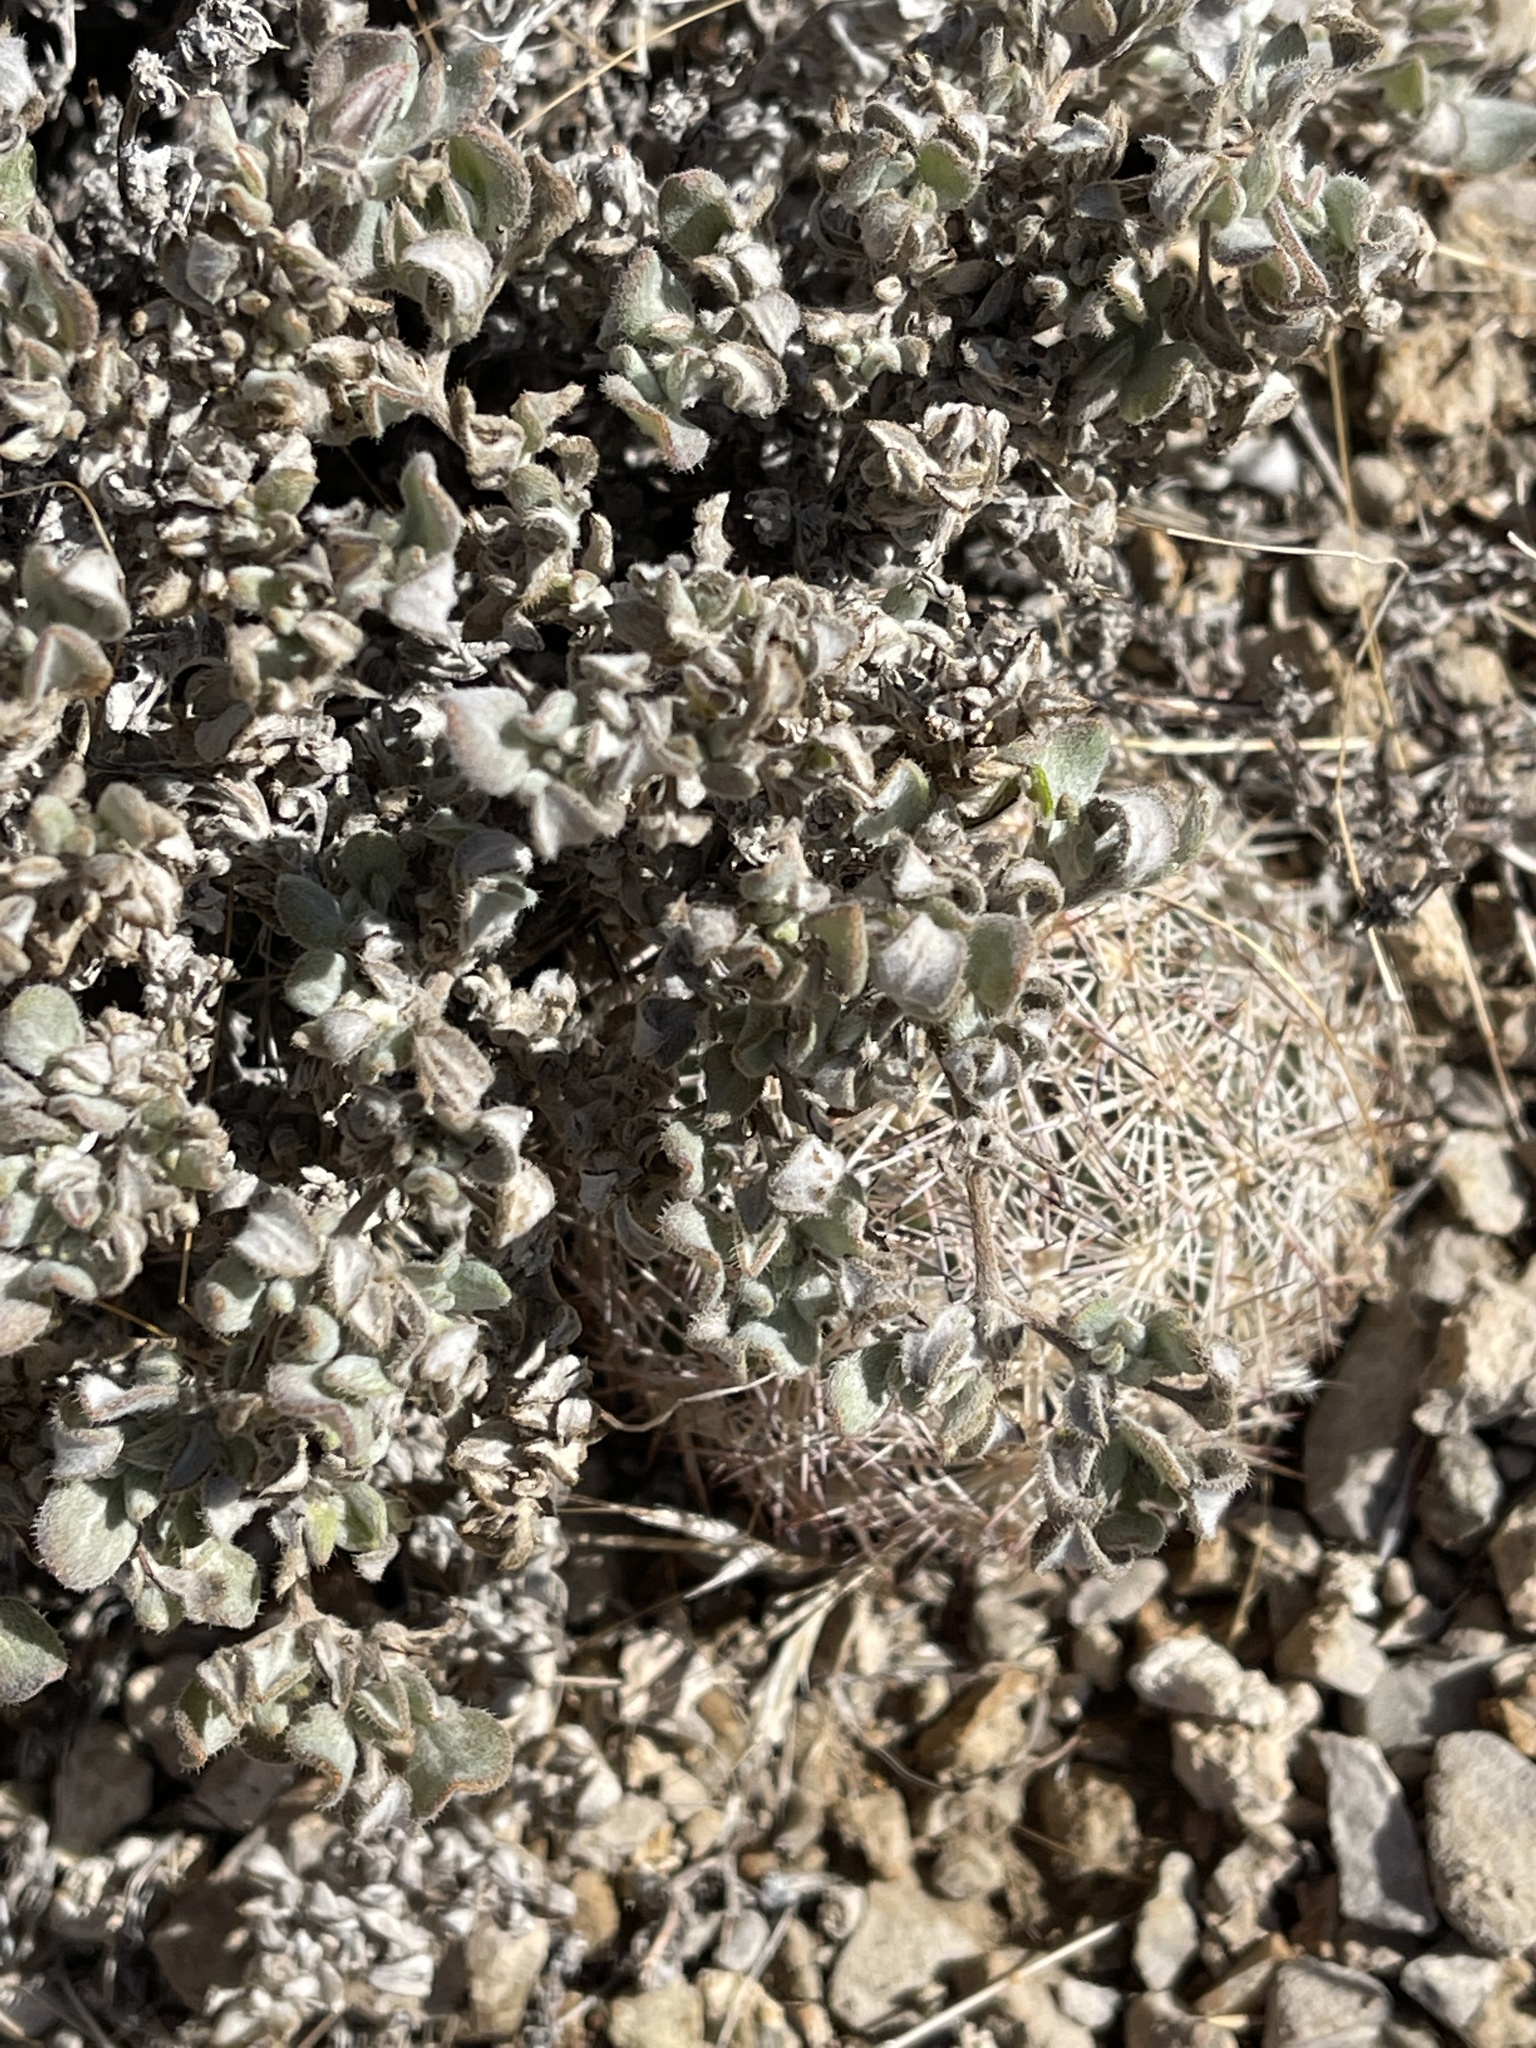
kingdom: Plantae
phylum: Tracheophyta
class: Magnoliopsida
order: Caryophyllales
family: Cactaceae
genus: Pelecyphora
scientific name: Pelecyphora vivipara
